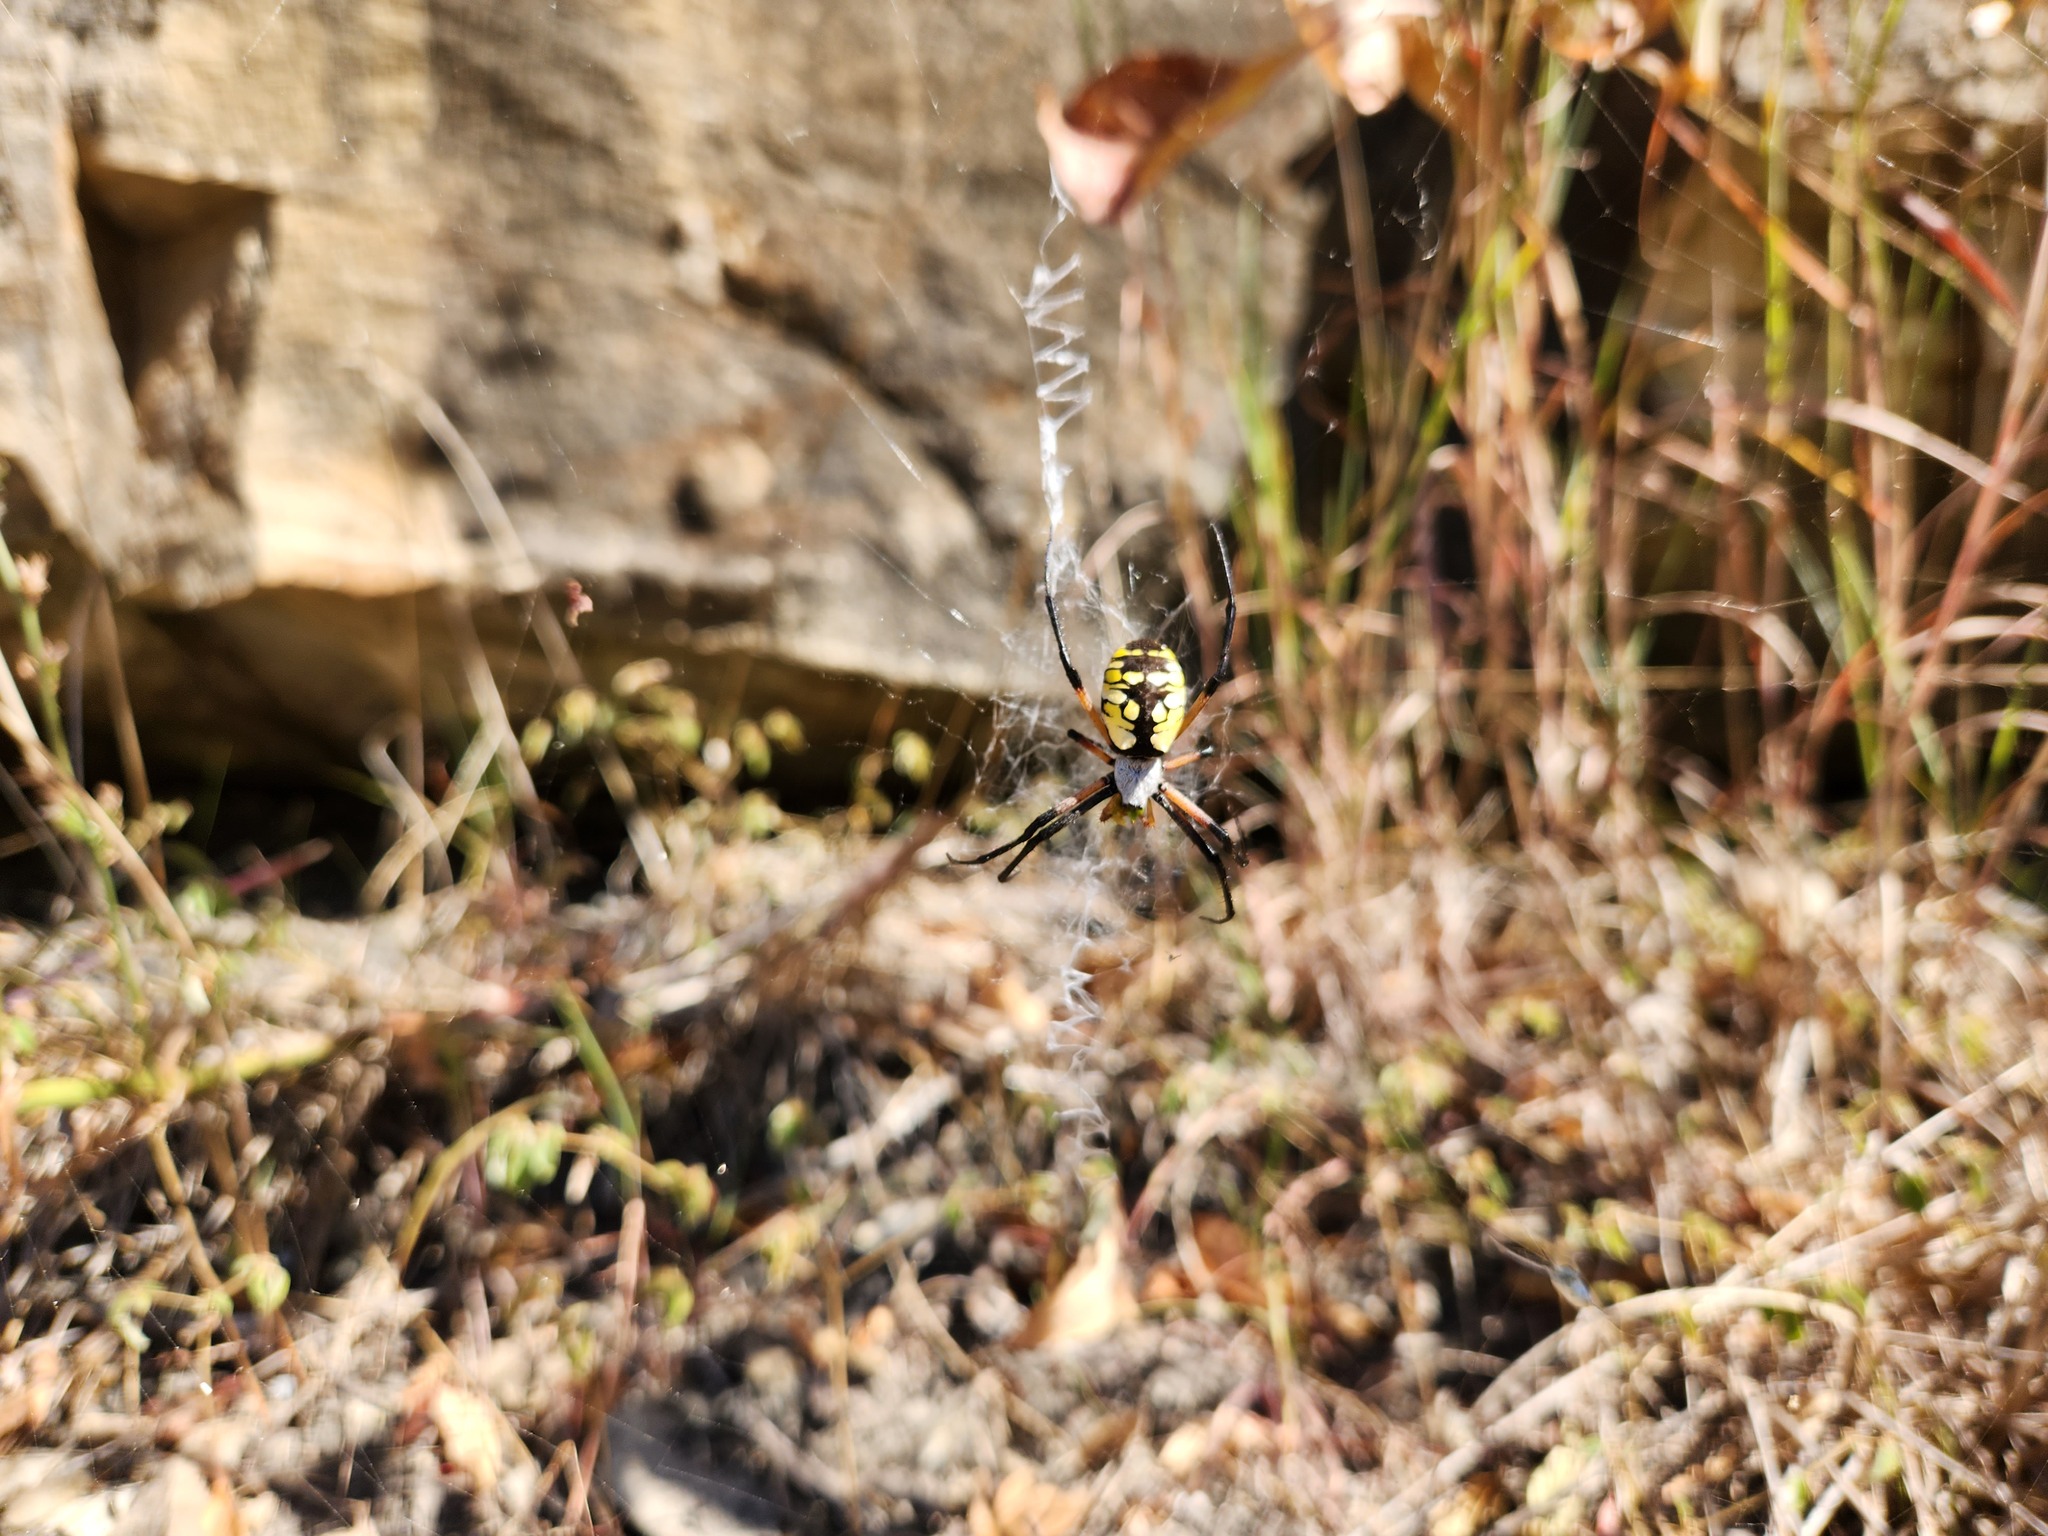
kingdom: Animalia
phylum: Arthropoda
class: Arachnida
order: Araneae
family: Araneidae
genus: Argiope
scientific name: Argiope aurantia
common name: Orb weavers
